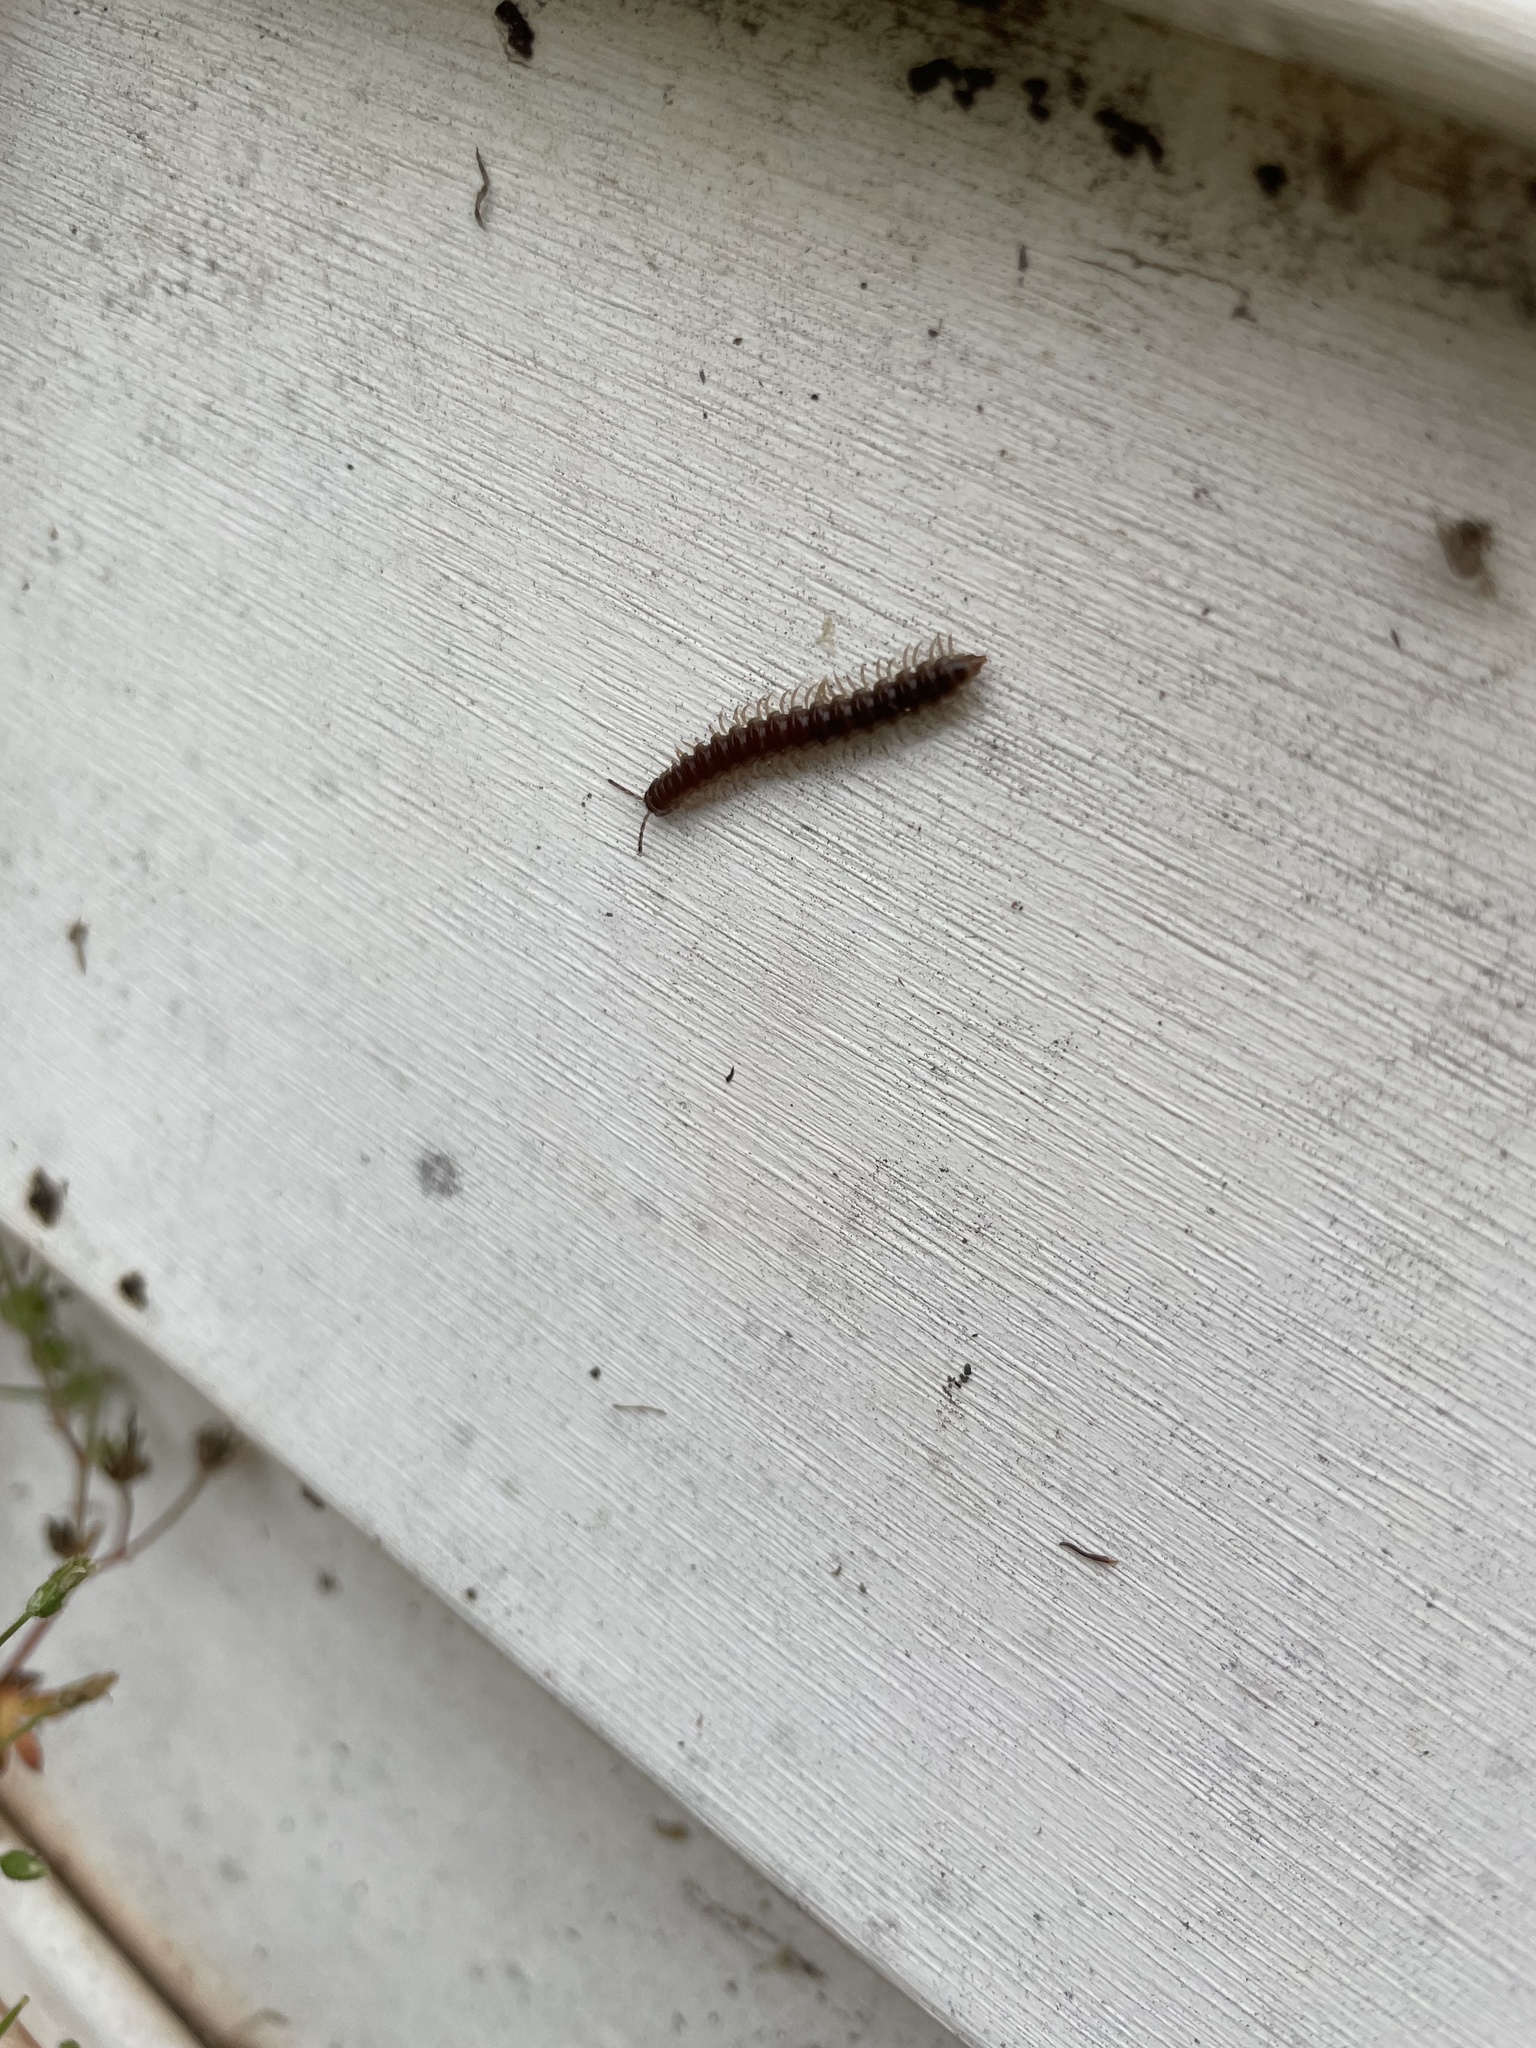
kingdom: Animalia
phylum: Arthropoda
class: Diplopoda
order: Polydesmida
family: Paradoxosomatidae
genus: Oxidus
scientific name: Oxidus gracilis
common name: Greenhouse millipede
